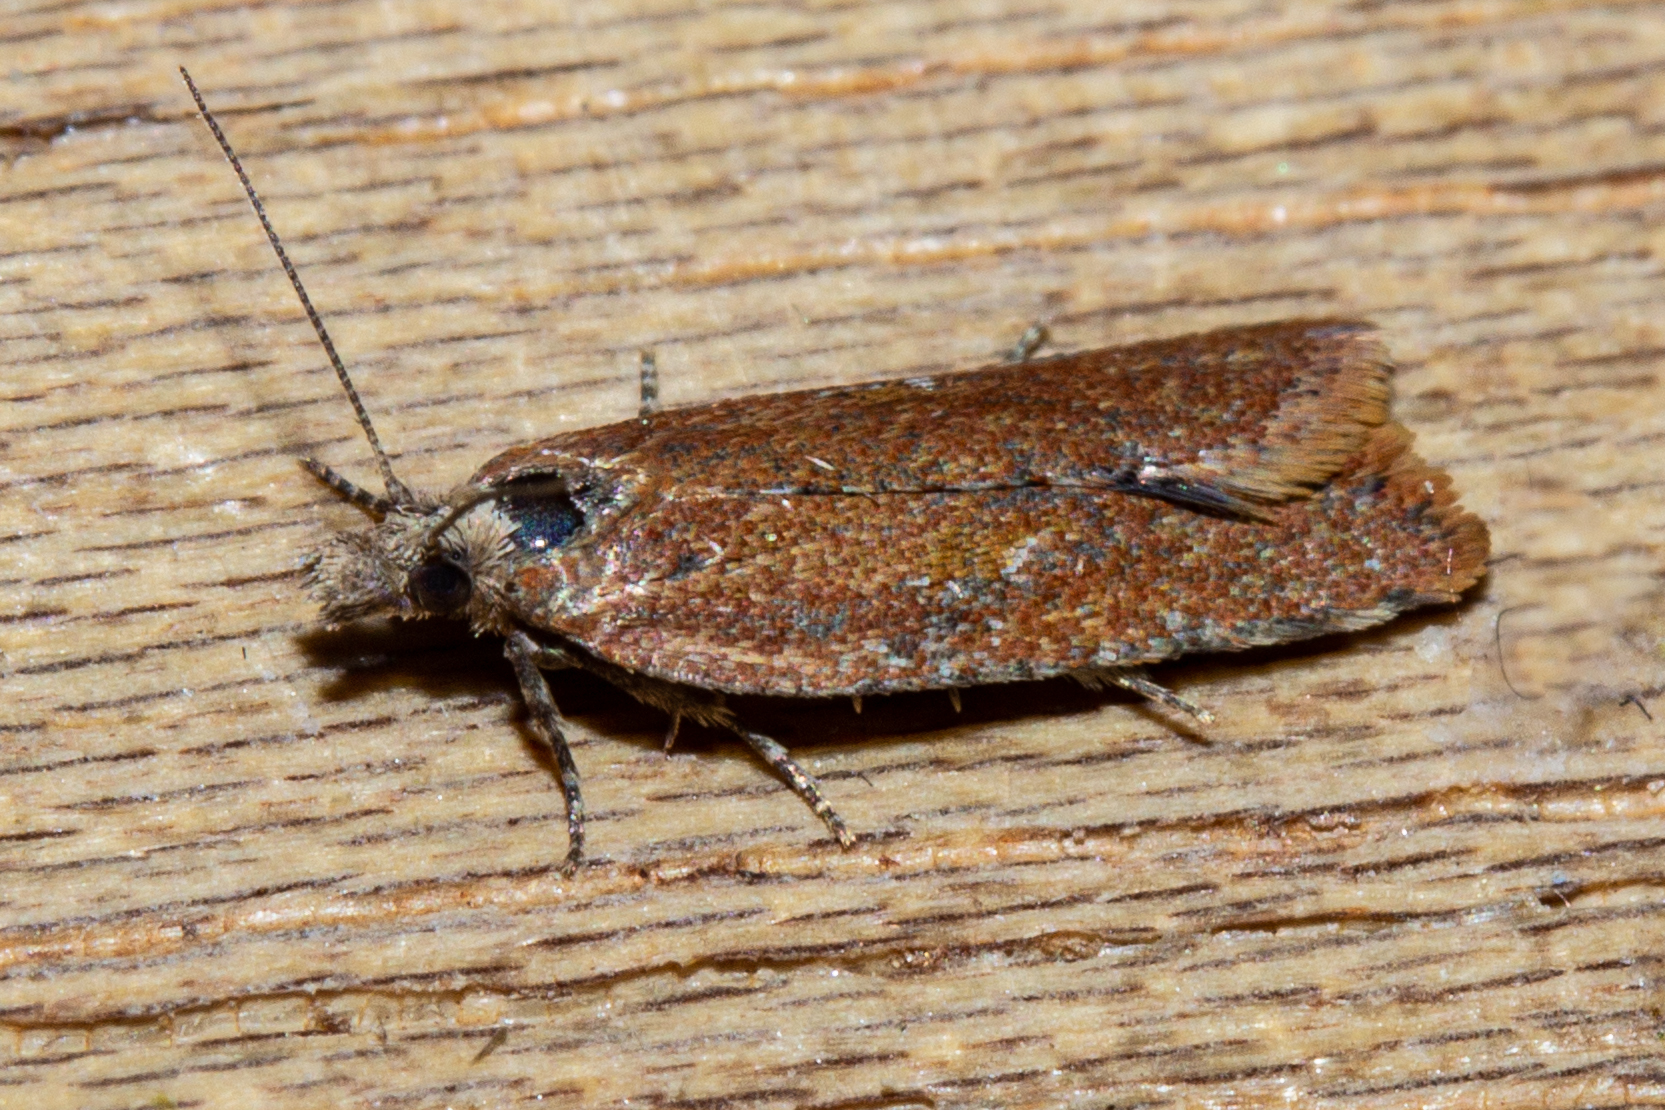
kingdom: Animalia
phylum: Arthropoda
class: Insecta
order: Lepidoptera
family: Tortricidae
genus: Capua
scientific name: Capua semiferana
